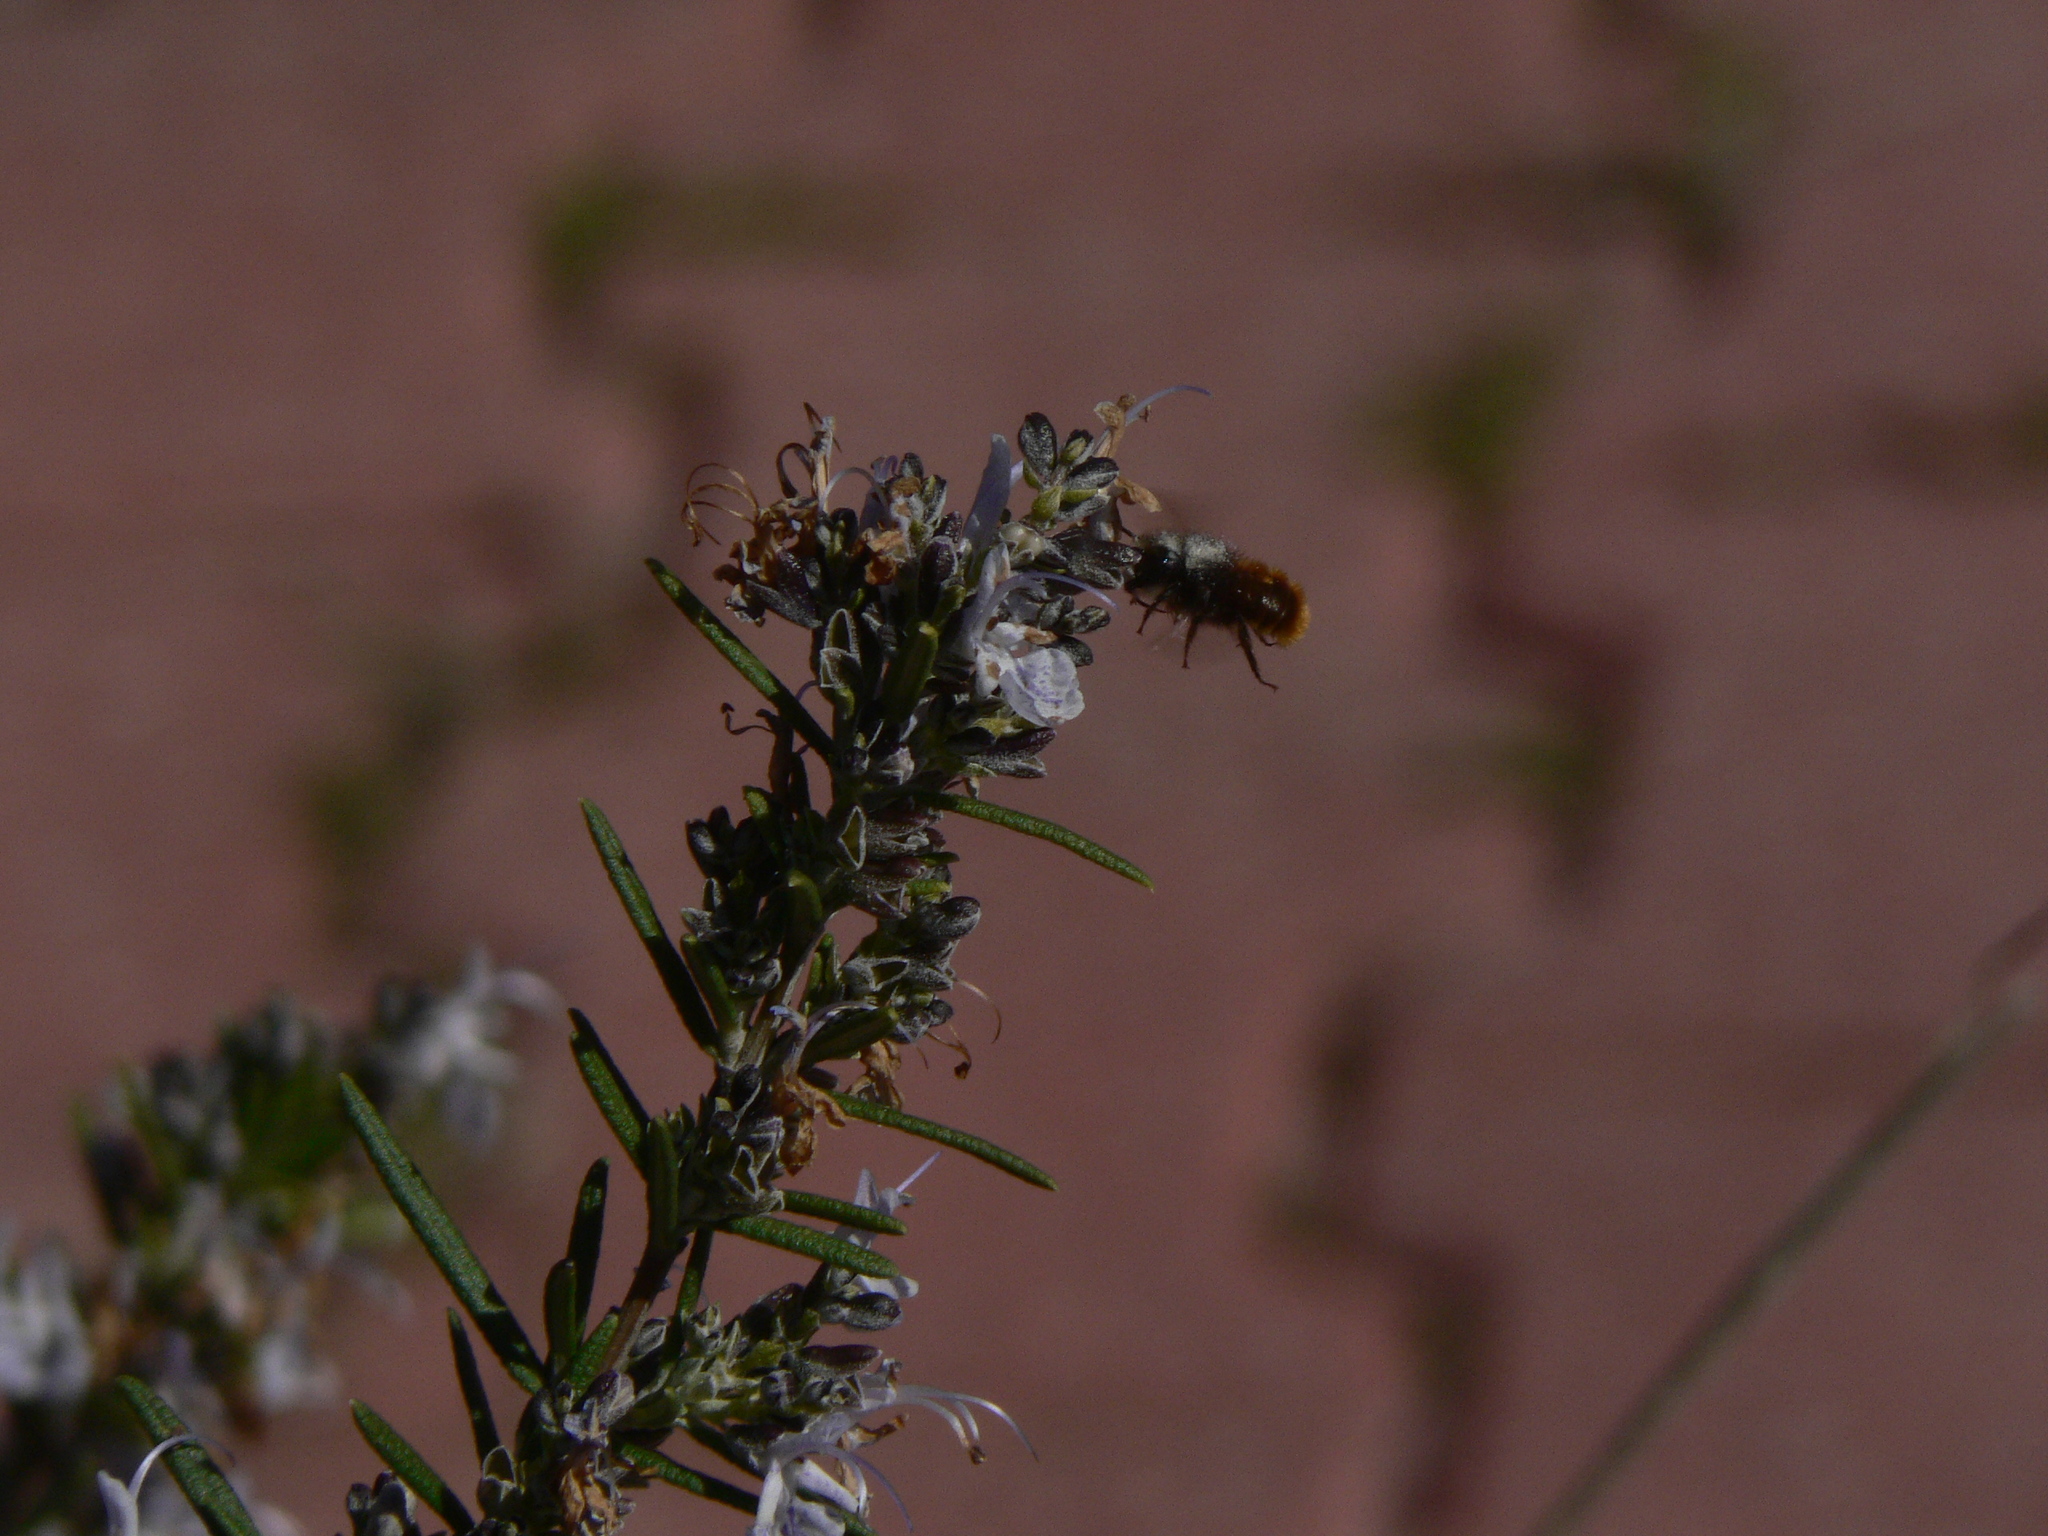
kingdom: Animalia
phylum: Arthropoda
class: Insecta
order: Hymenoptera
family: Megachilidae
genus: Osmia
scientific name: Osmia cornuta
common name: Mason bee
